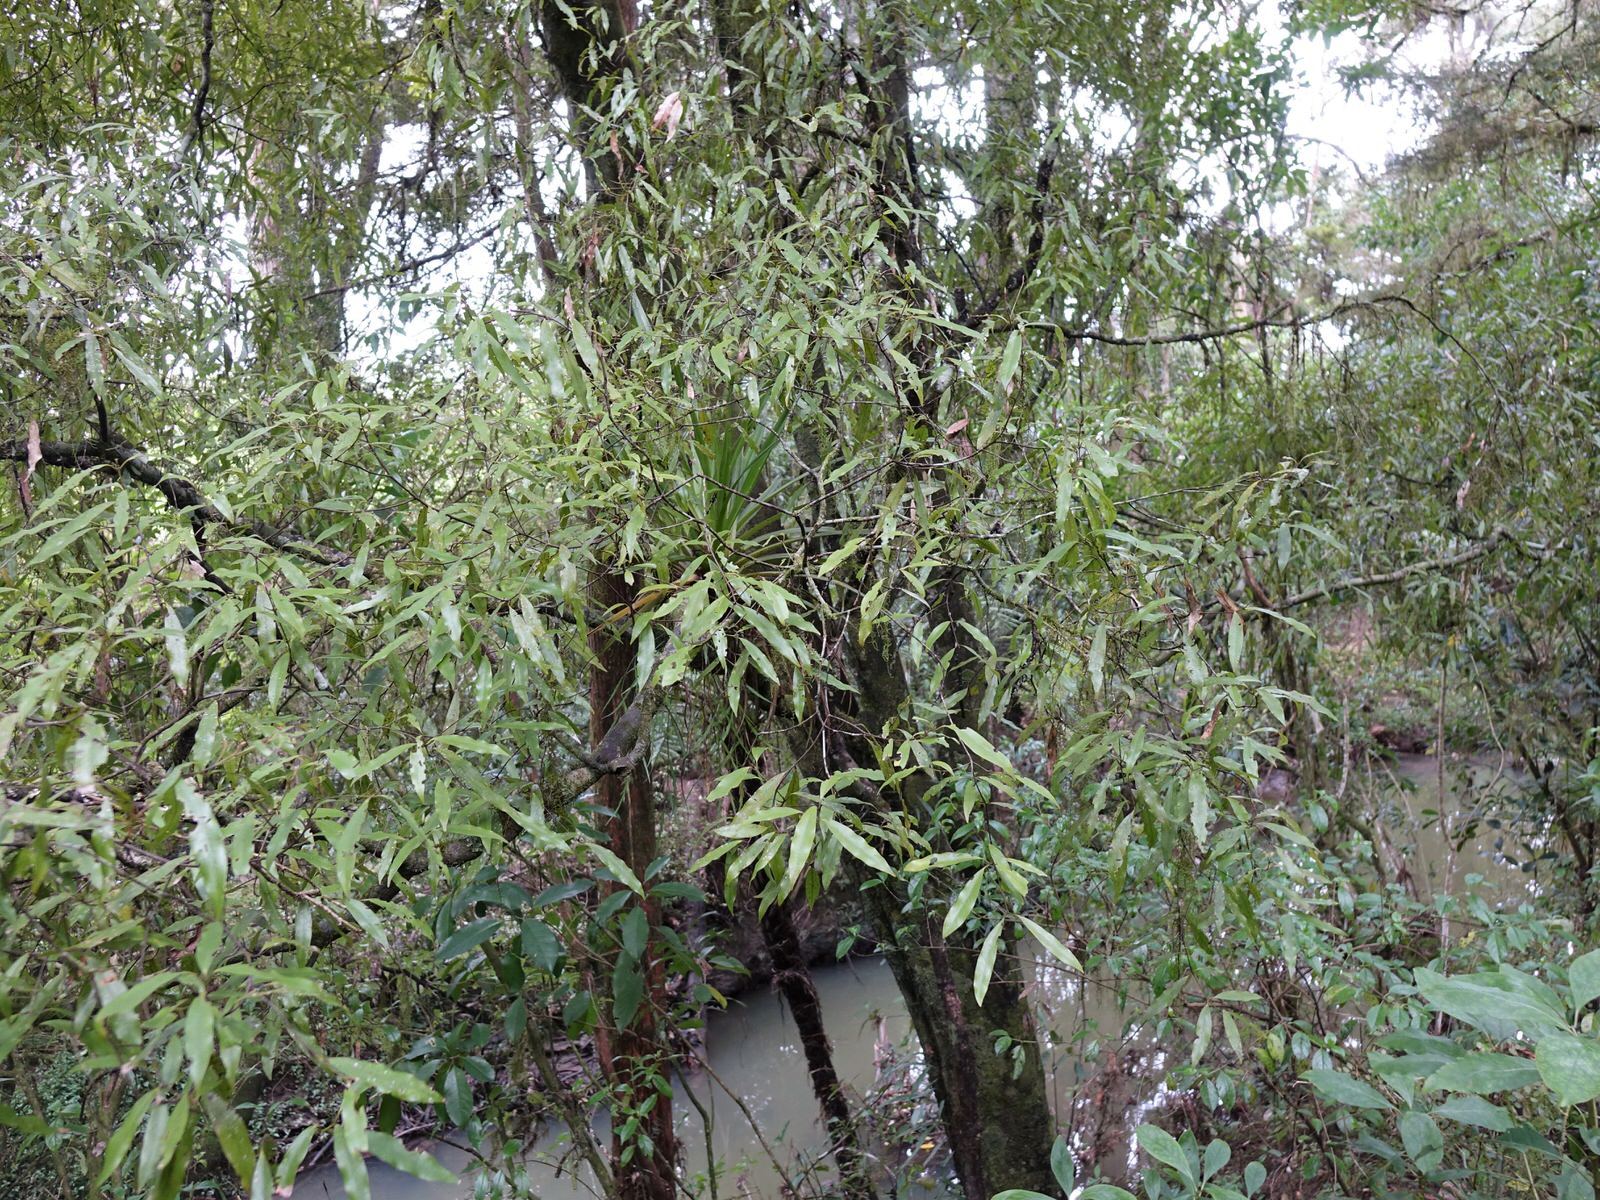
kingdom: Plantae
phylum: Tracheophyta
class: Magnoliopsida
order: Laurales
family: Lauraceae
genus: Beilschmiedia
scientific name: Beilschmiedia tawa
